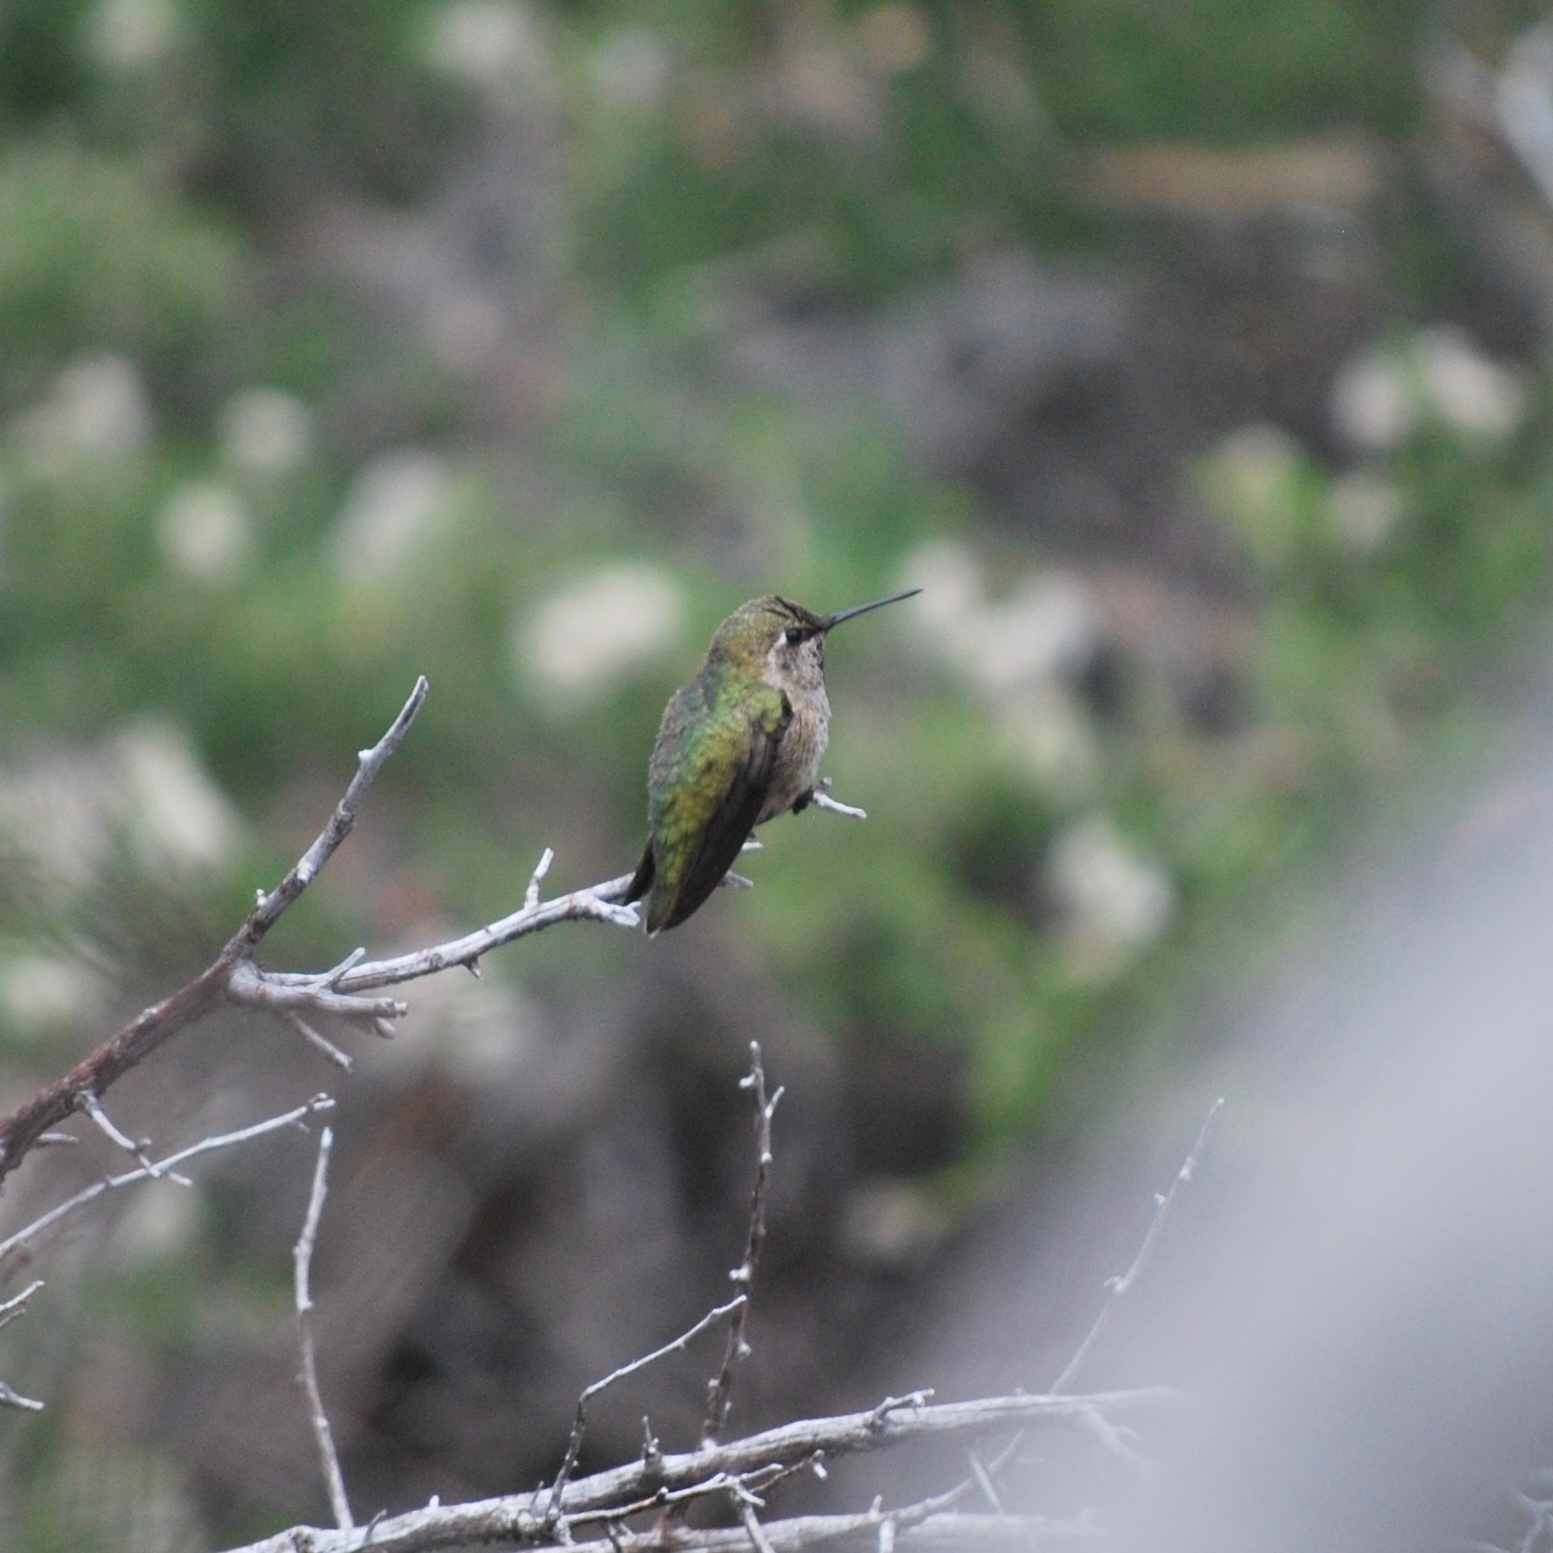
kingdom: Animalia
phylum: Chordata
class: Aves
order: Apodiformes
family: Trochilidae
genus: Calypte
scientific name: Calypte anna
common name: Anna's hummingbird
